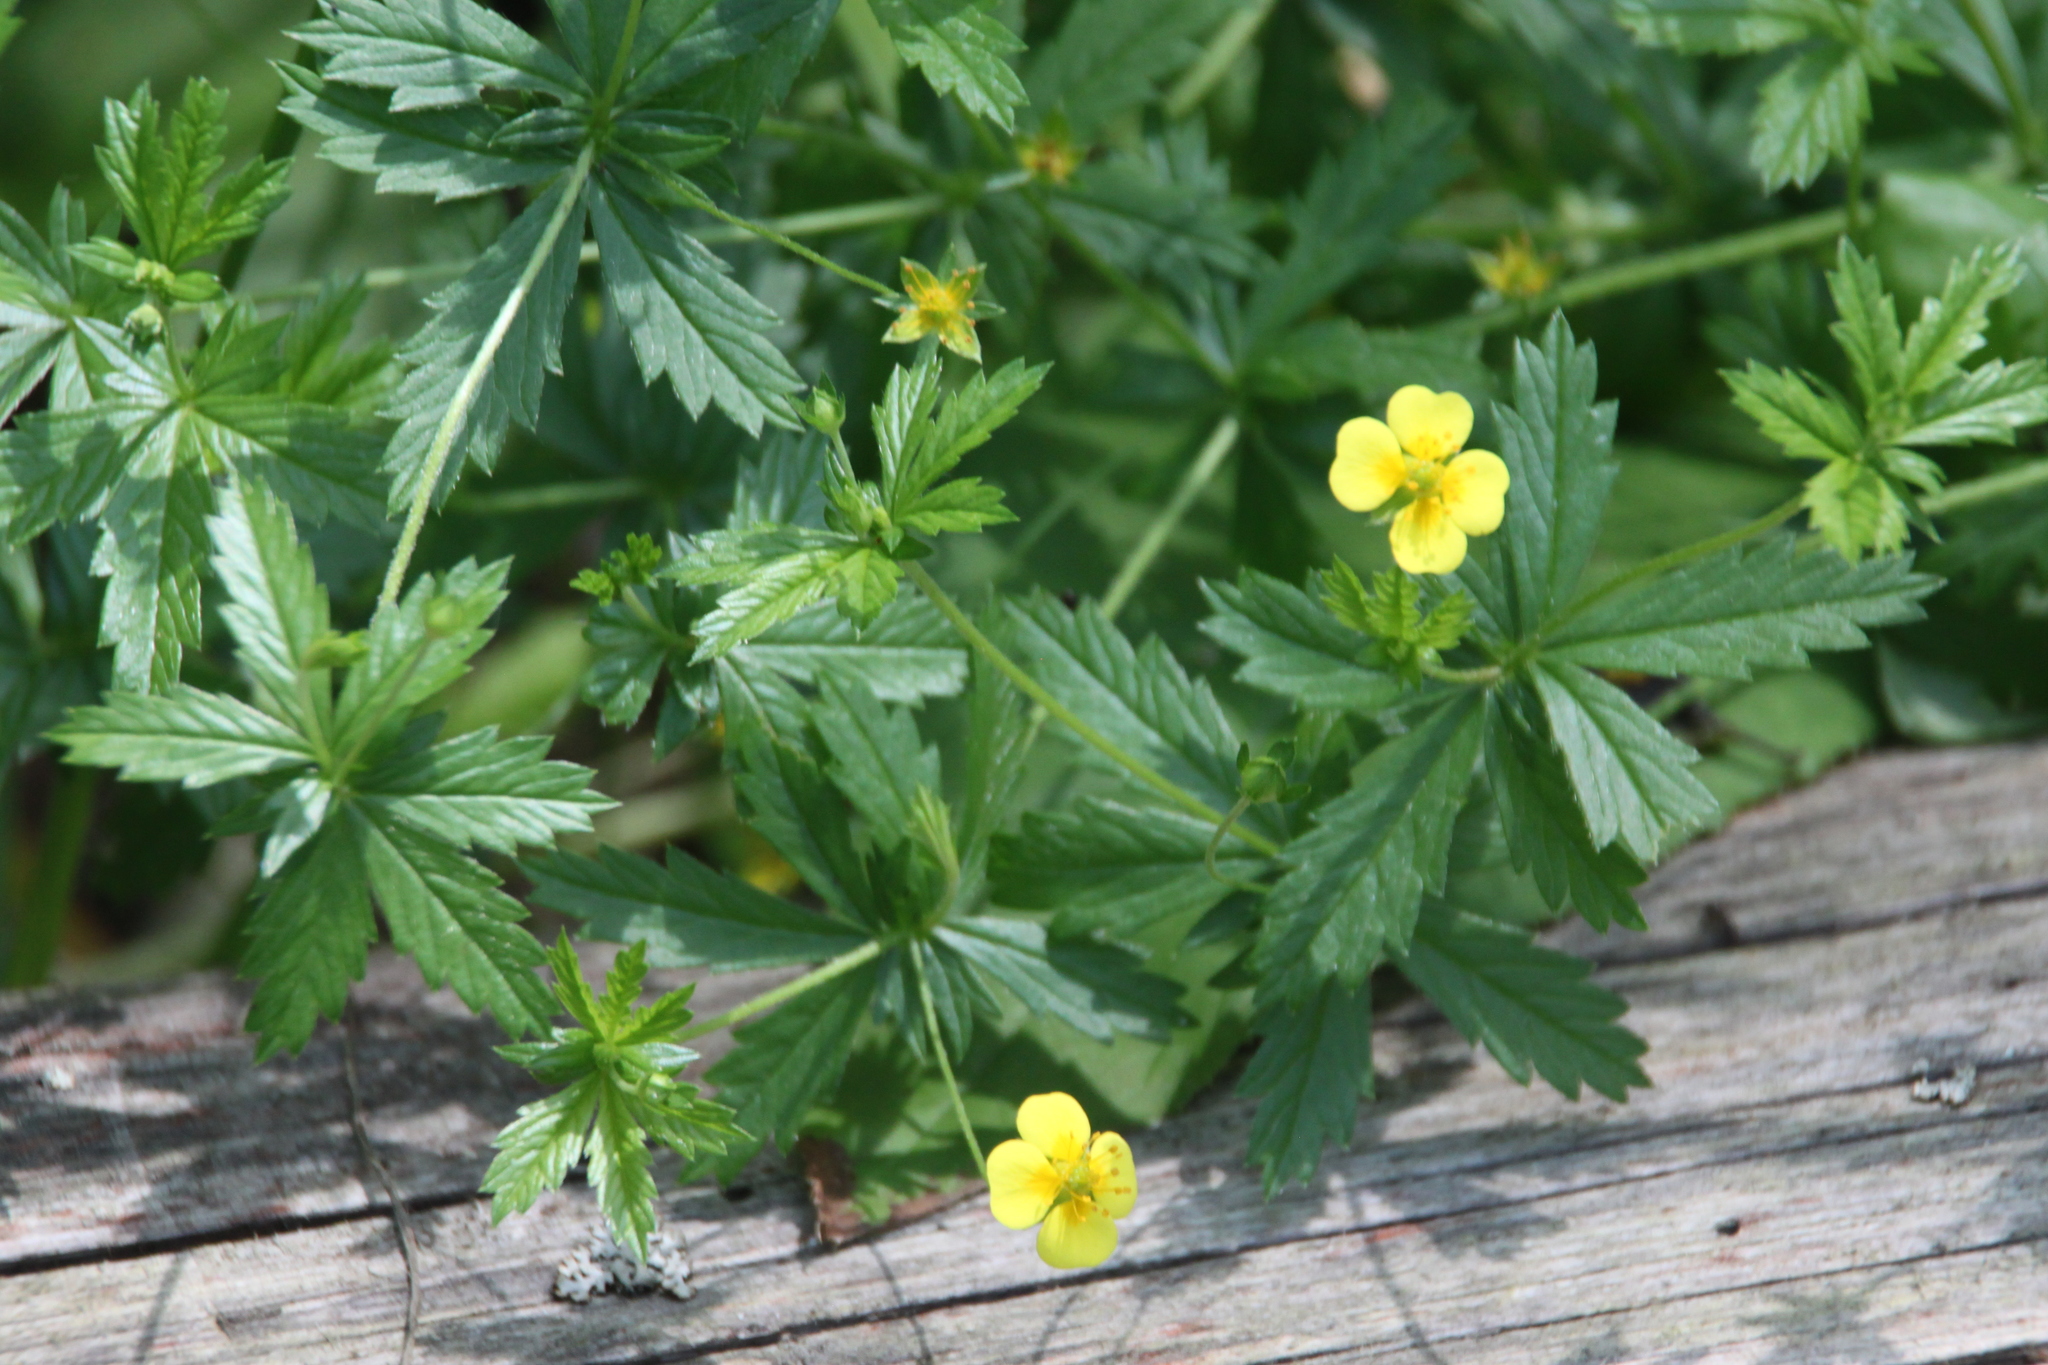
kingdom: Plantae
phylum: Tracheophyta
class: Magnoliopsida
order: Rosales
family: Rosaceae
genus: Potentilla
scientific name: Potentilla erecta
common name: Tormentil
